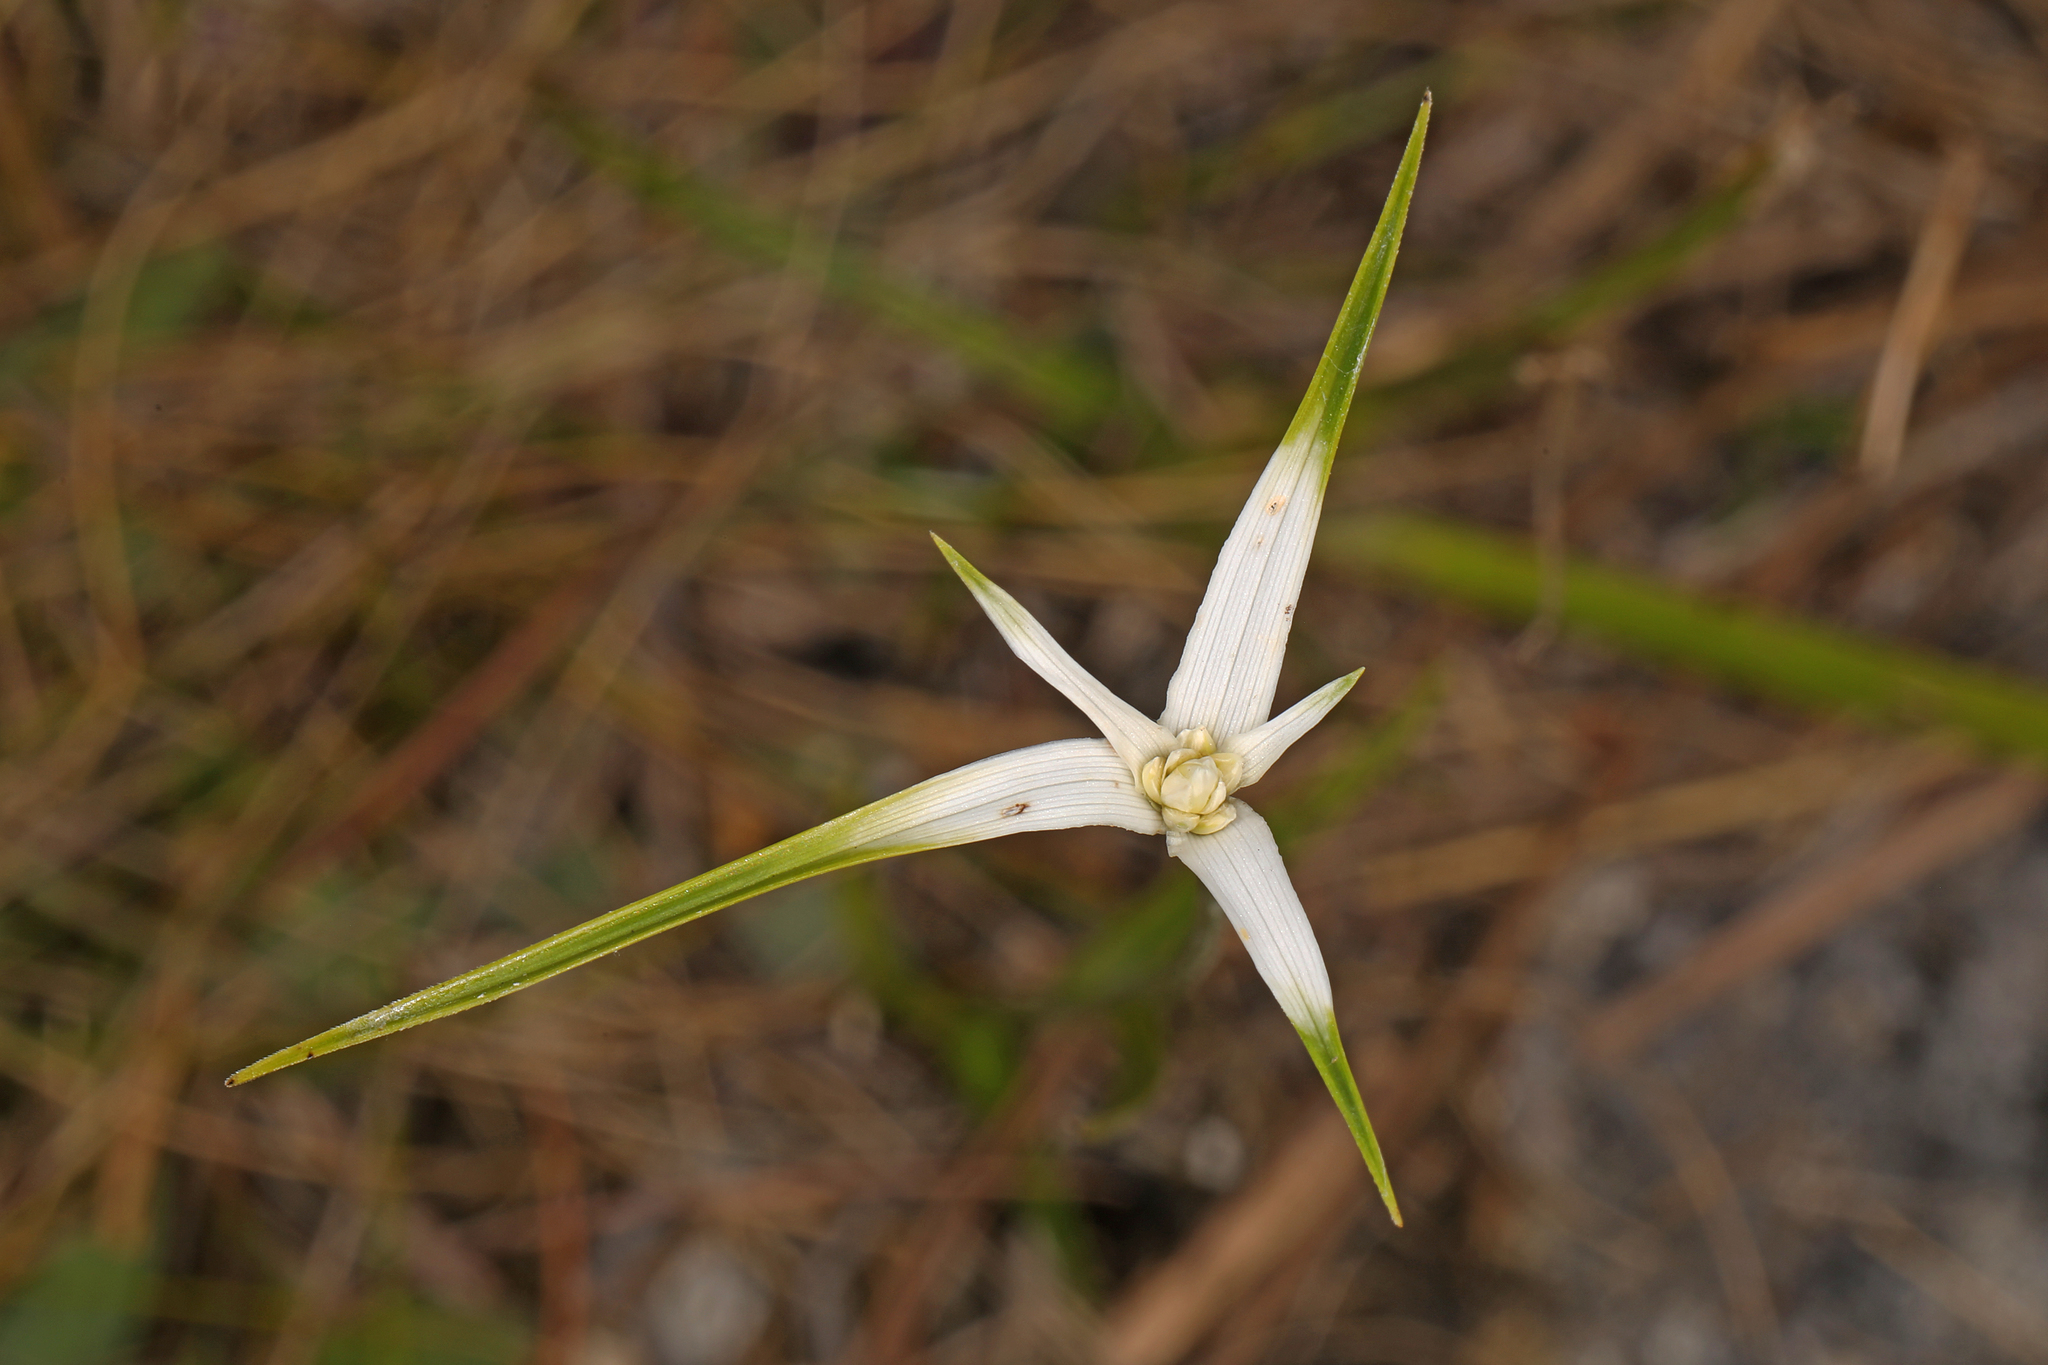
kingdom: Plantae
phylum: Tracheophyta
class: Liliopsida
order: Poales
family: Cyperaceae
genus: Rhynchospora
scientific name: Rhynchospora colorata
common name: Star sedge
